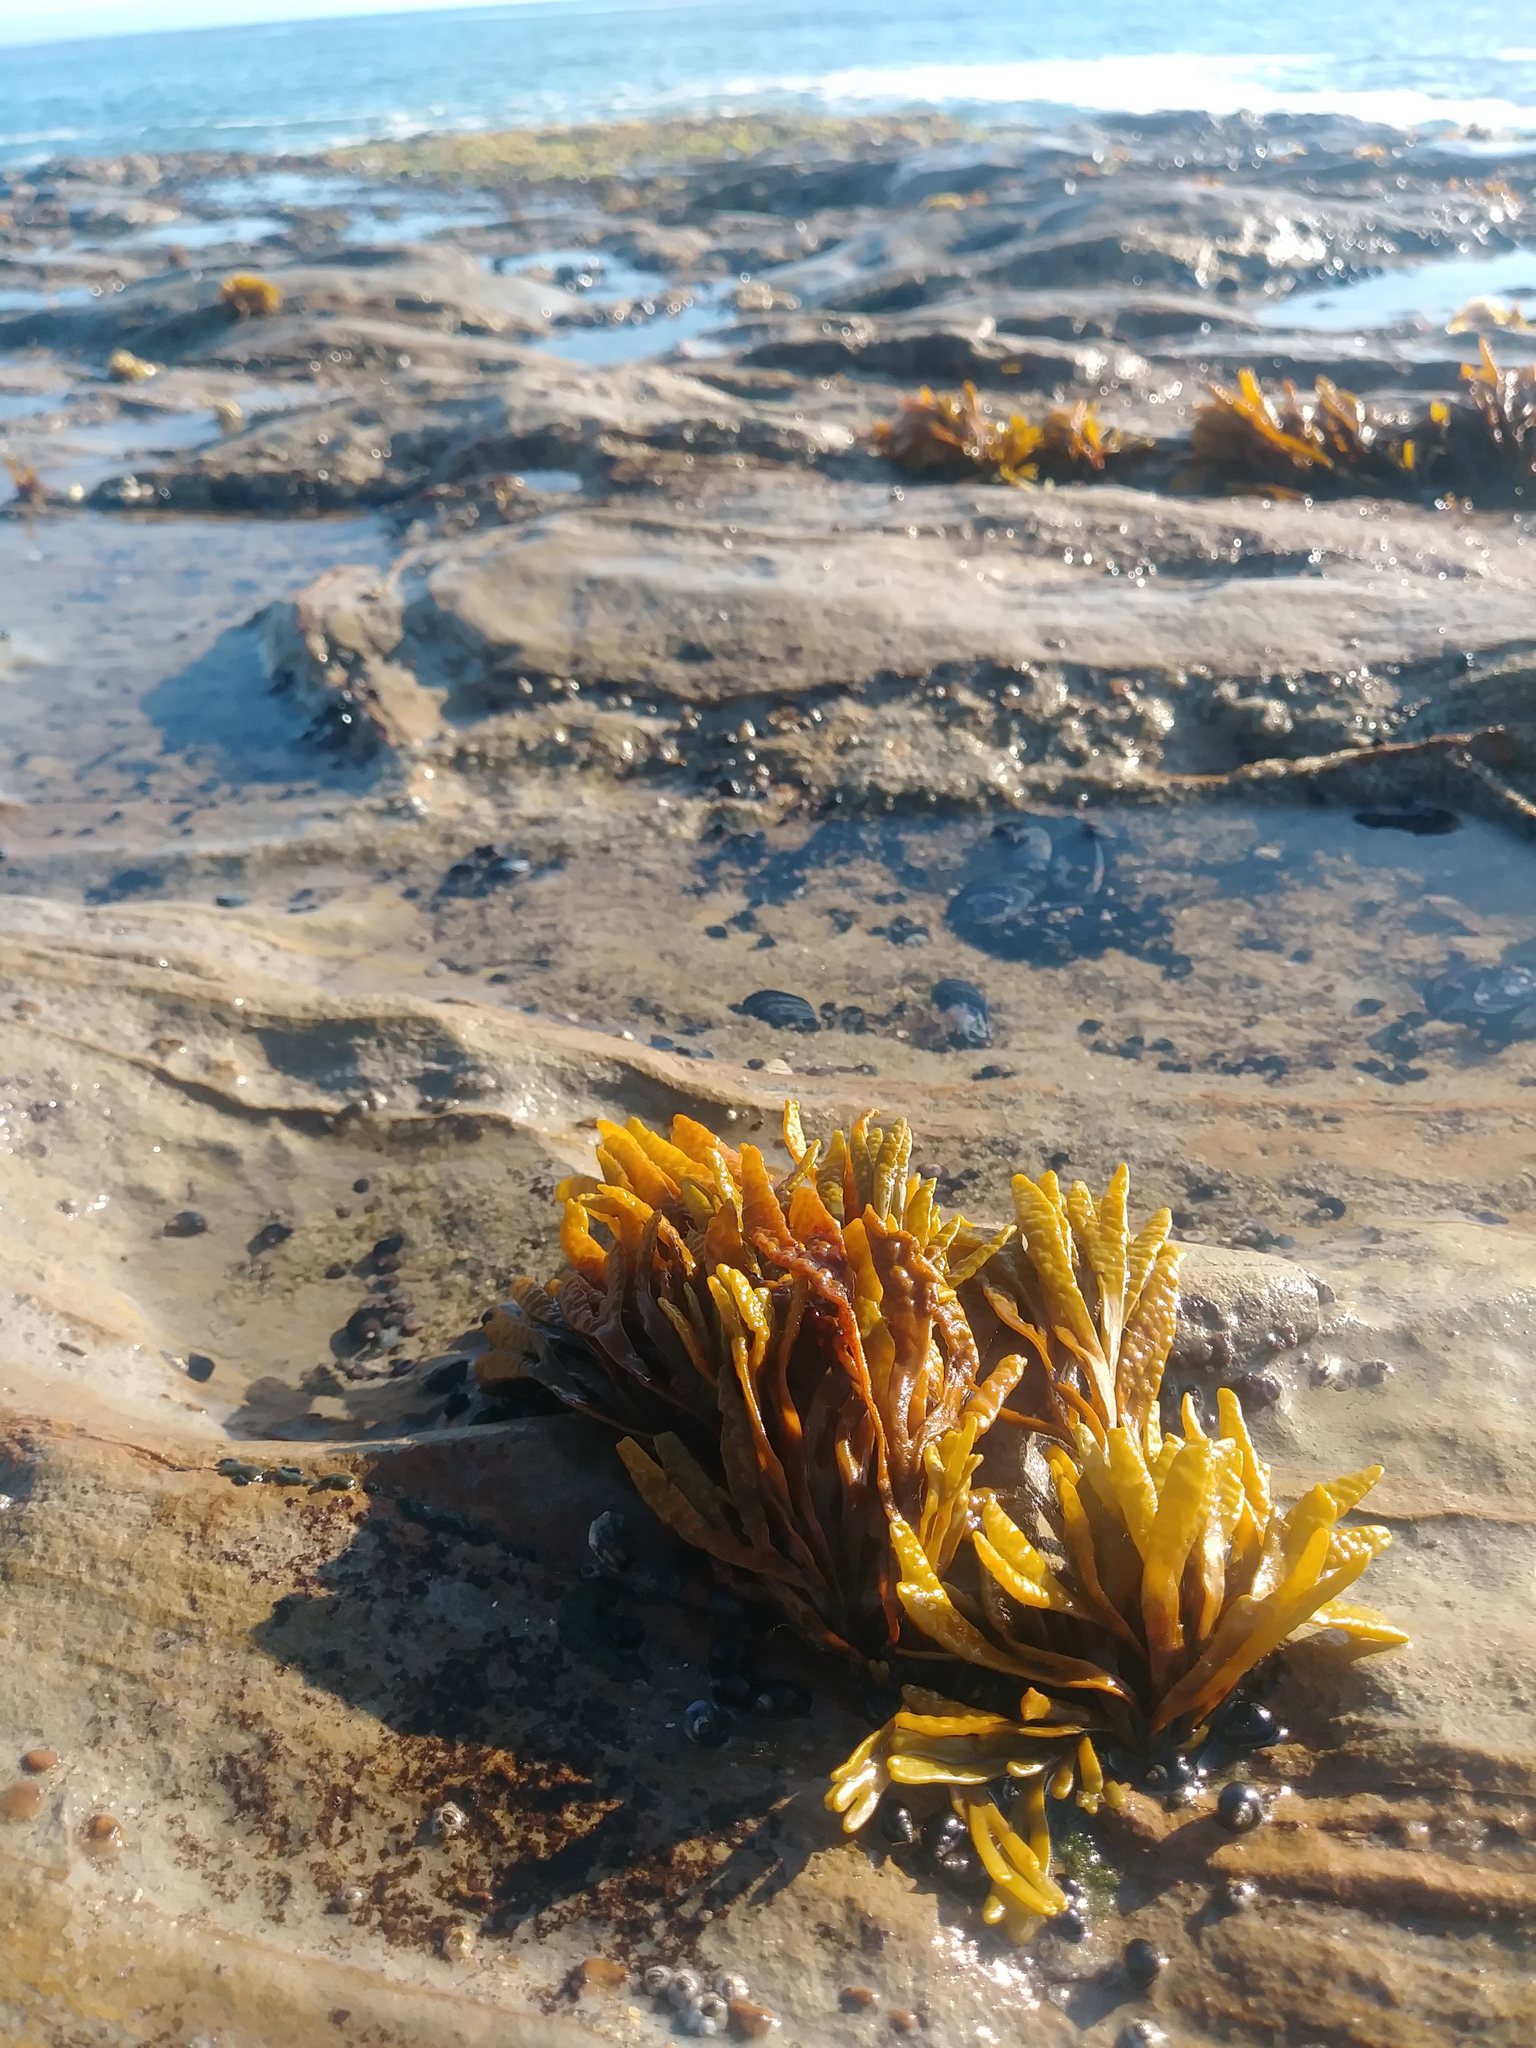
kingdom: Chromista
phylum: Ochrophyta
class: Phaeophyceae
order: Fucales
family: Fucaceae
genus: Pelvetiopsis
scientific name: Pelvetiopsis limitata
